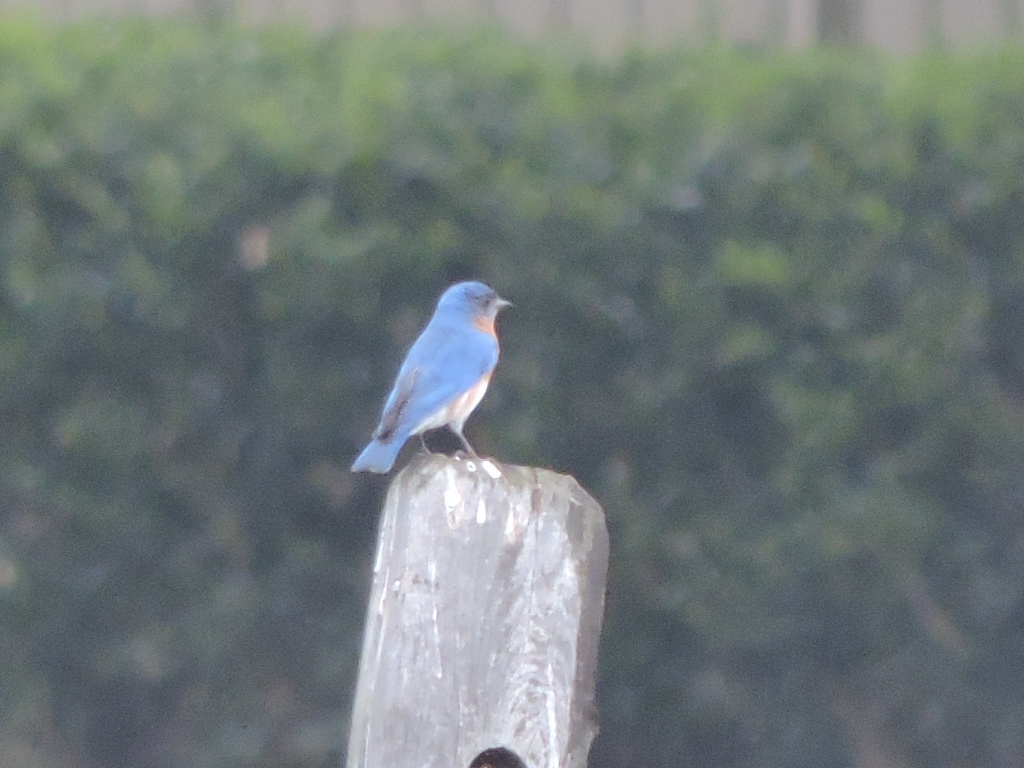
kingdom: Animalia
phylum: Chordata
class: Aves
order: Passeriformes
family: Turdidae
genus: Sialia
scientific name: Sialia sialis
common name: Eastern bluebird
